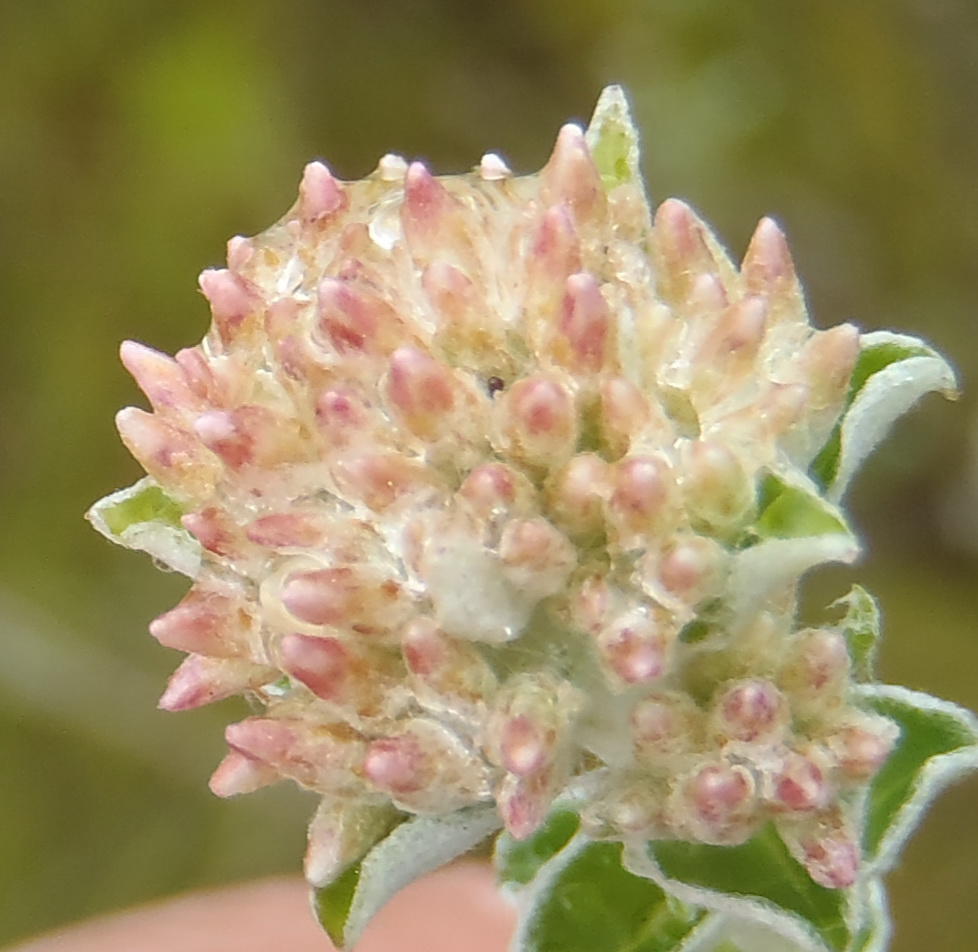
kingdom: Plantae
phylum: Tracheophyta
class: Magnoliopsida
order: Asterales
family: Asteraceae
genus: Plecostachys
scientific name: Plecostachys serpyllifolia
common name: Petite licorice
